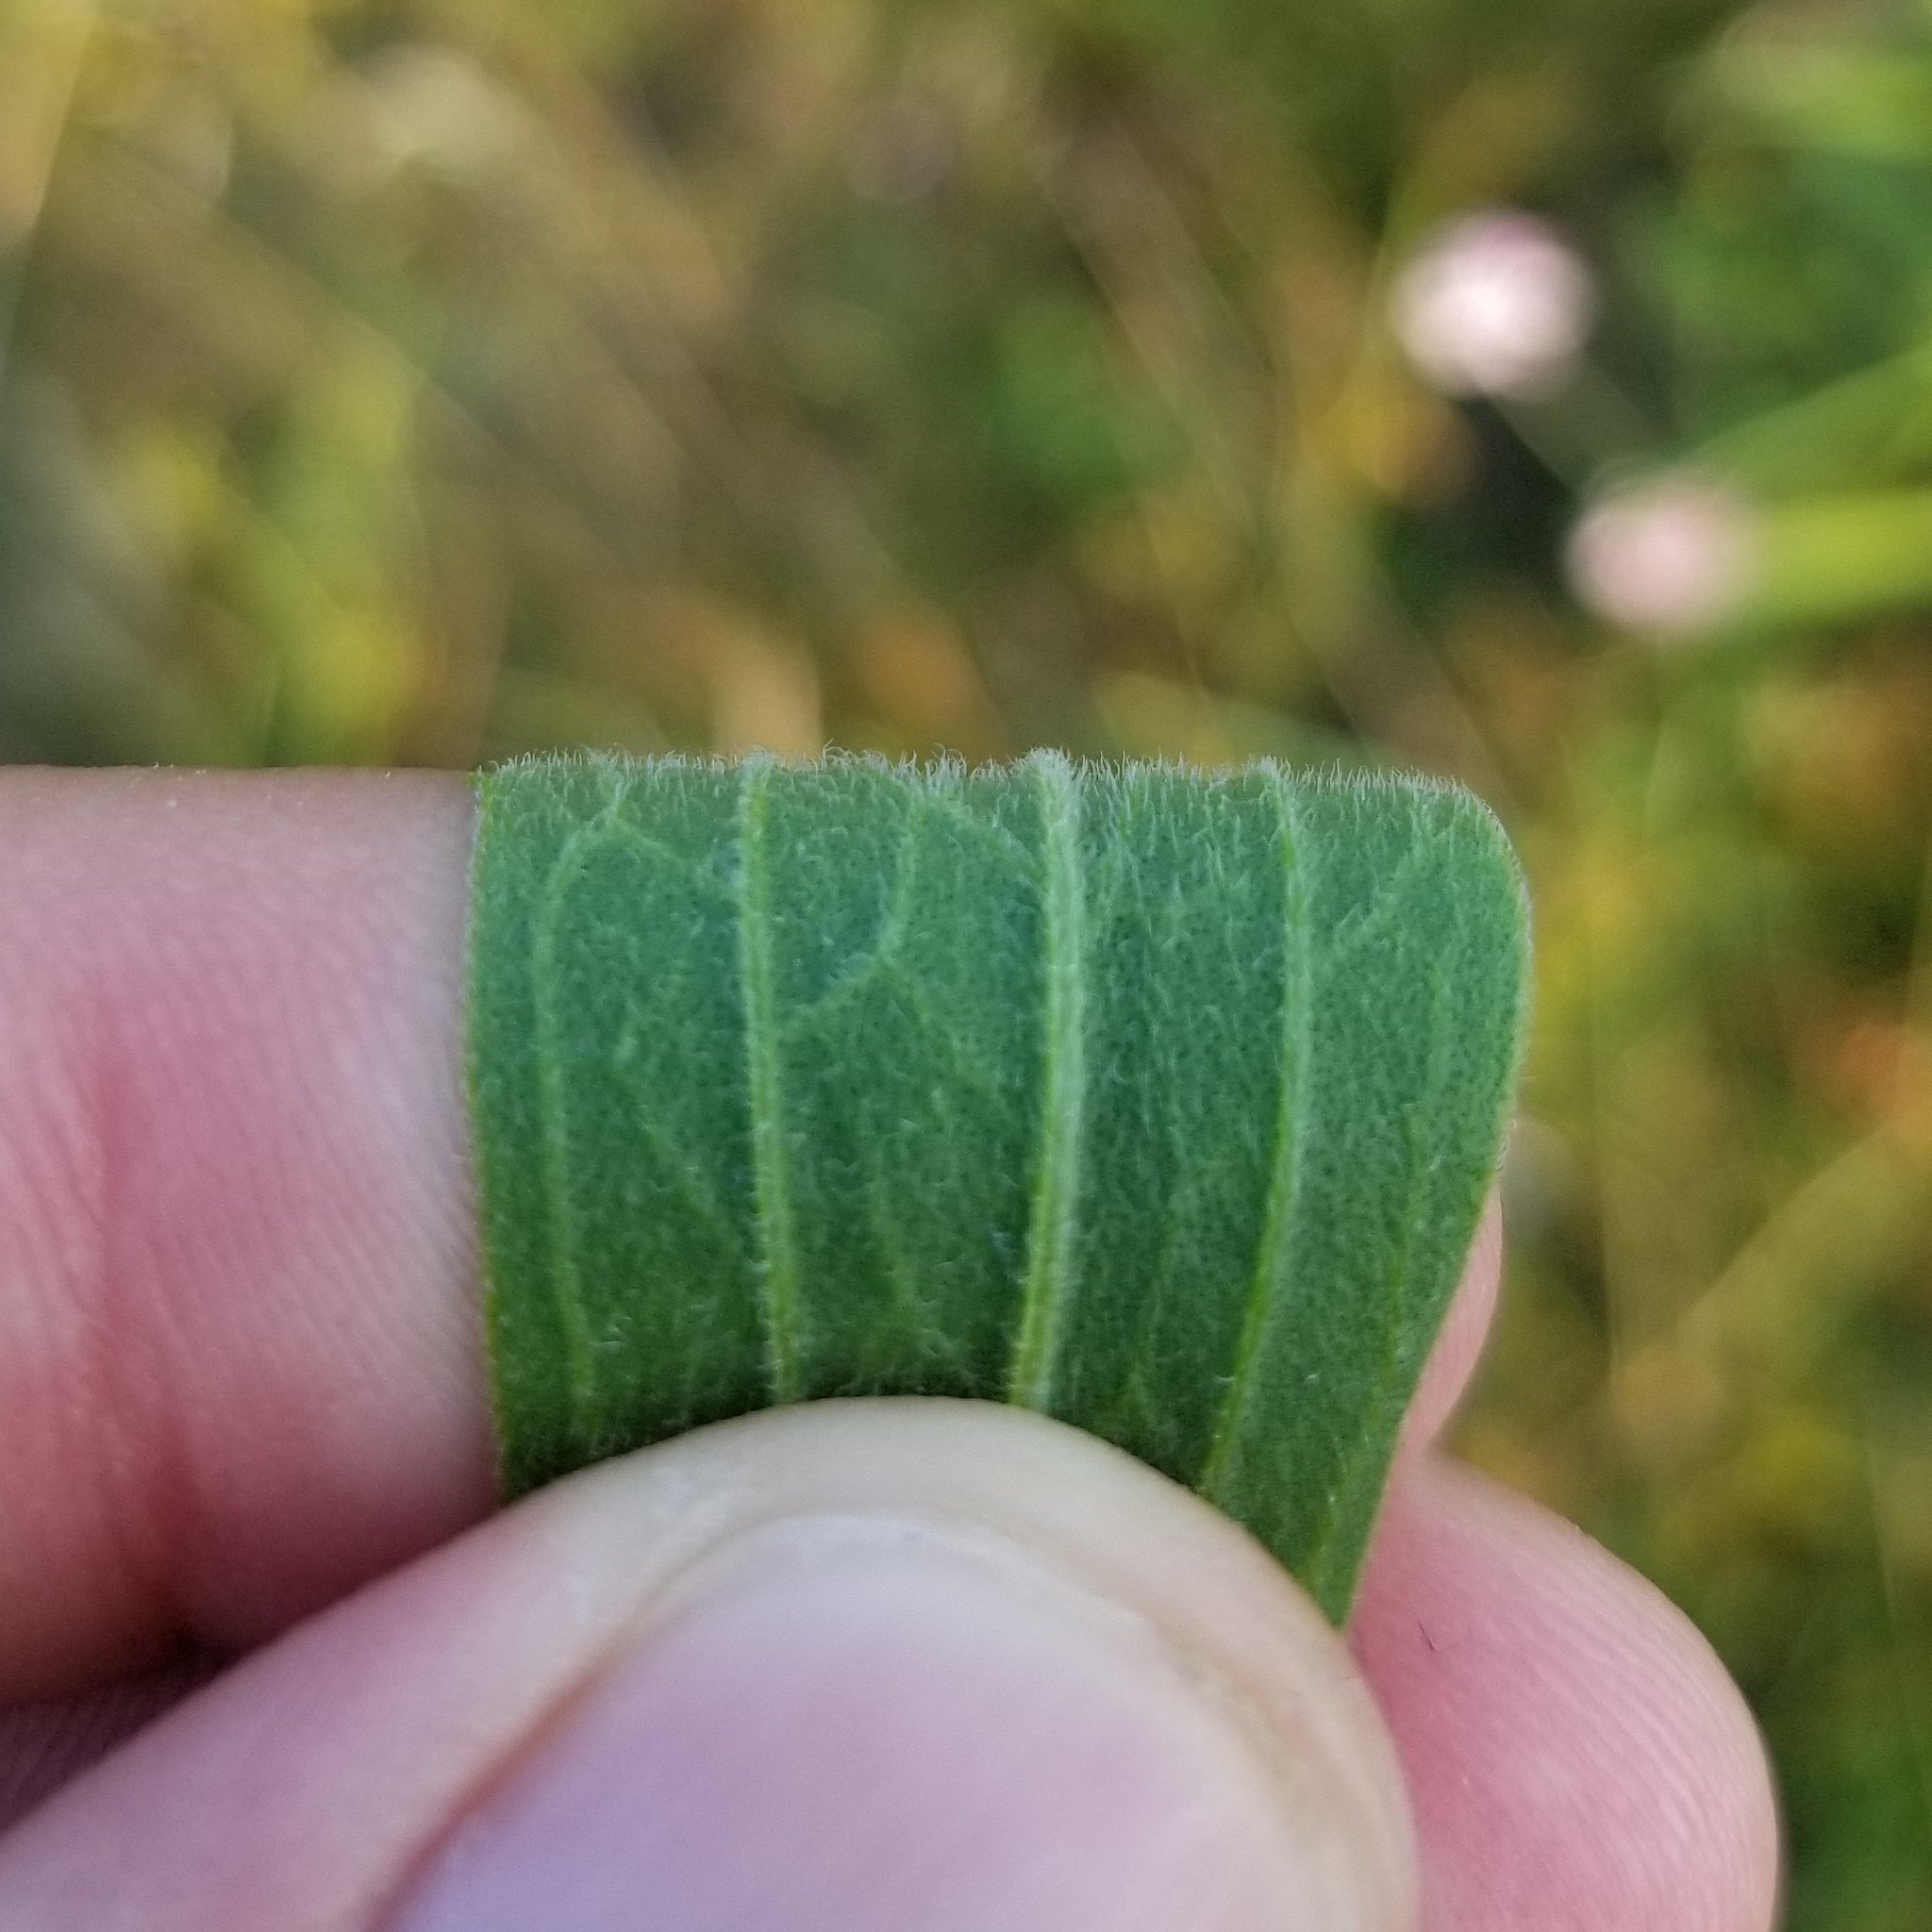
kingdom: Plantae
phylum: Tracheophyta
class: Magnoliopsida
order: Asterales
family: Asteraceae
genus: Eupatorium
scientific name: Eupatorium altissimum
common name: Tall thoroughwort
